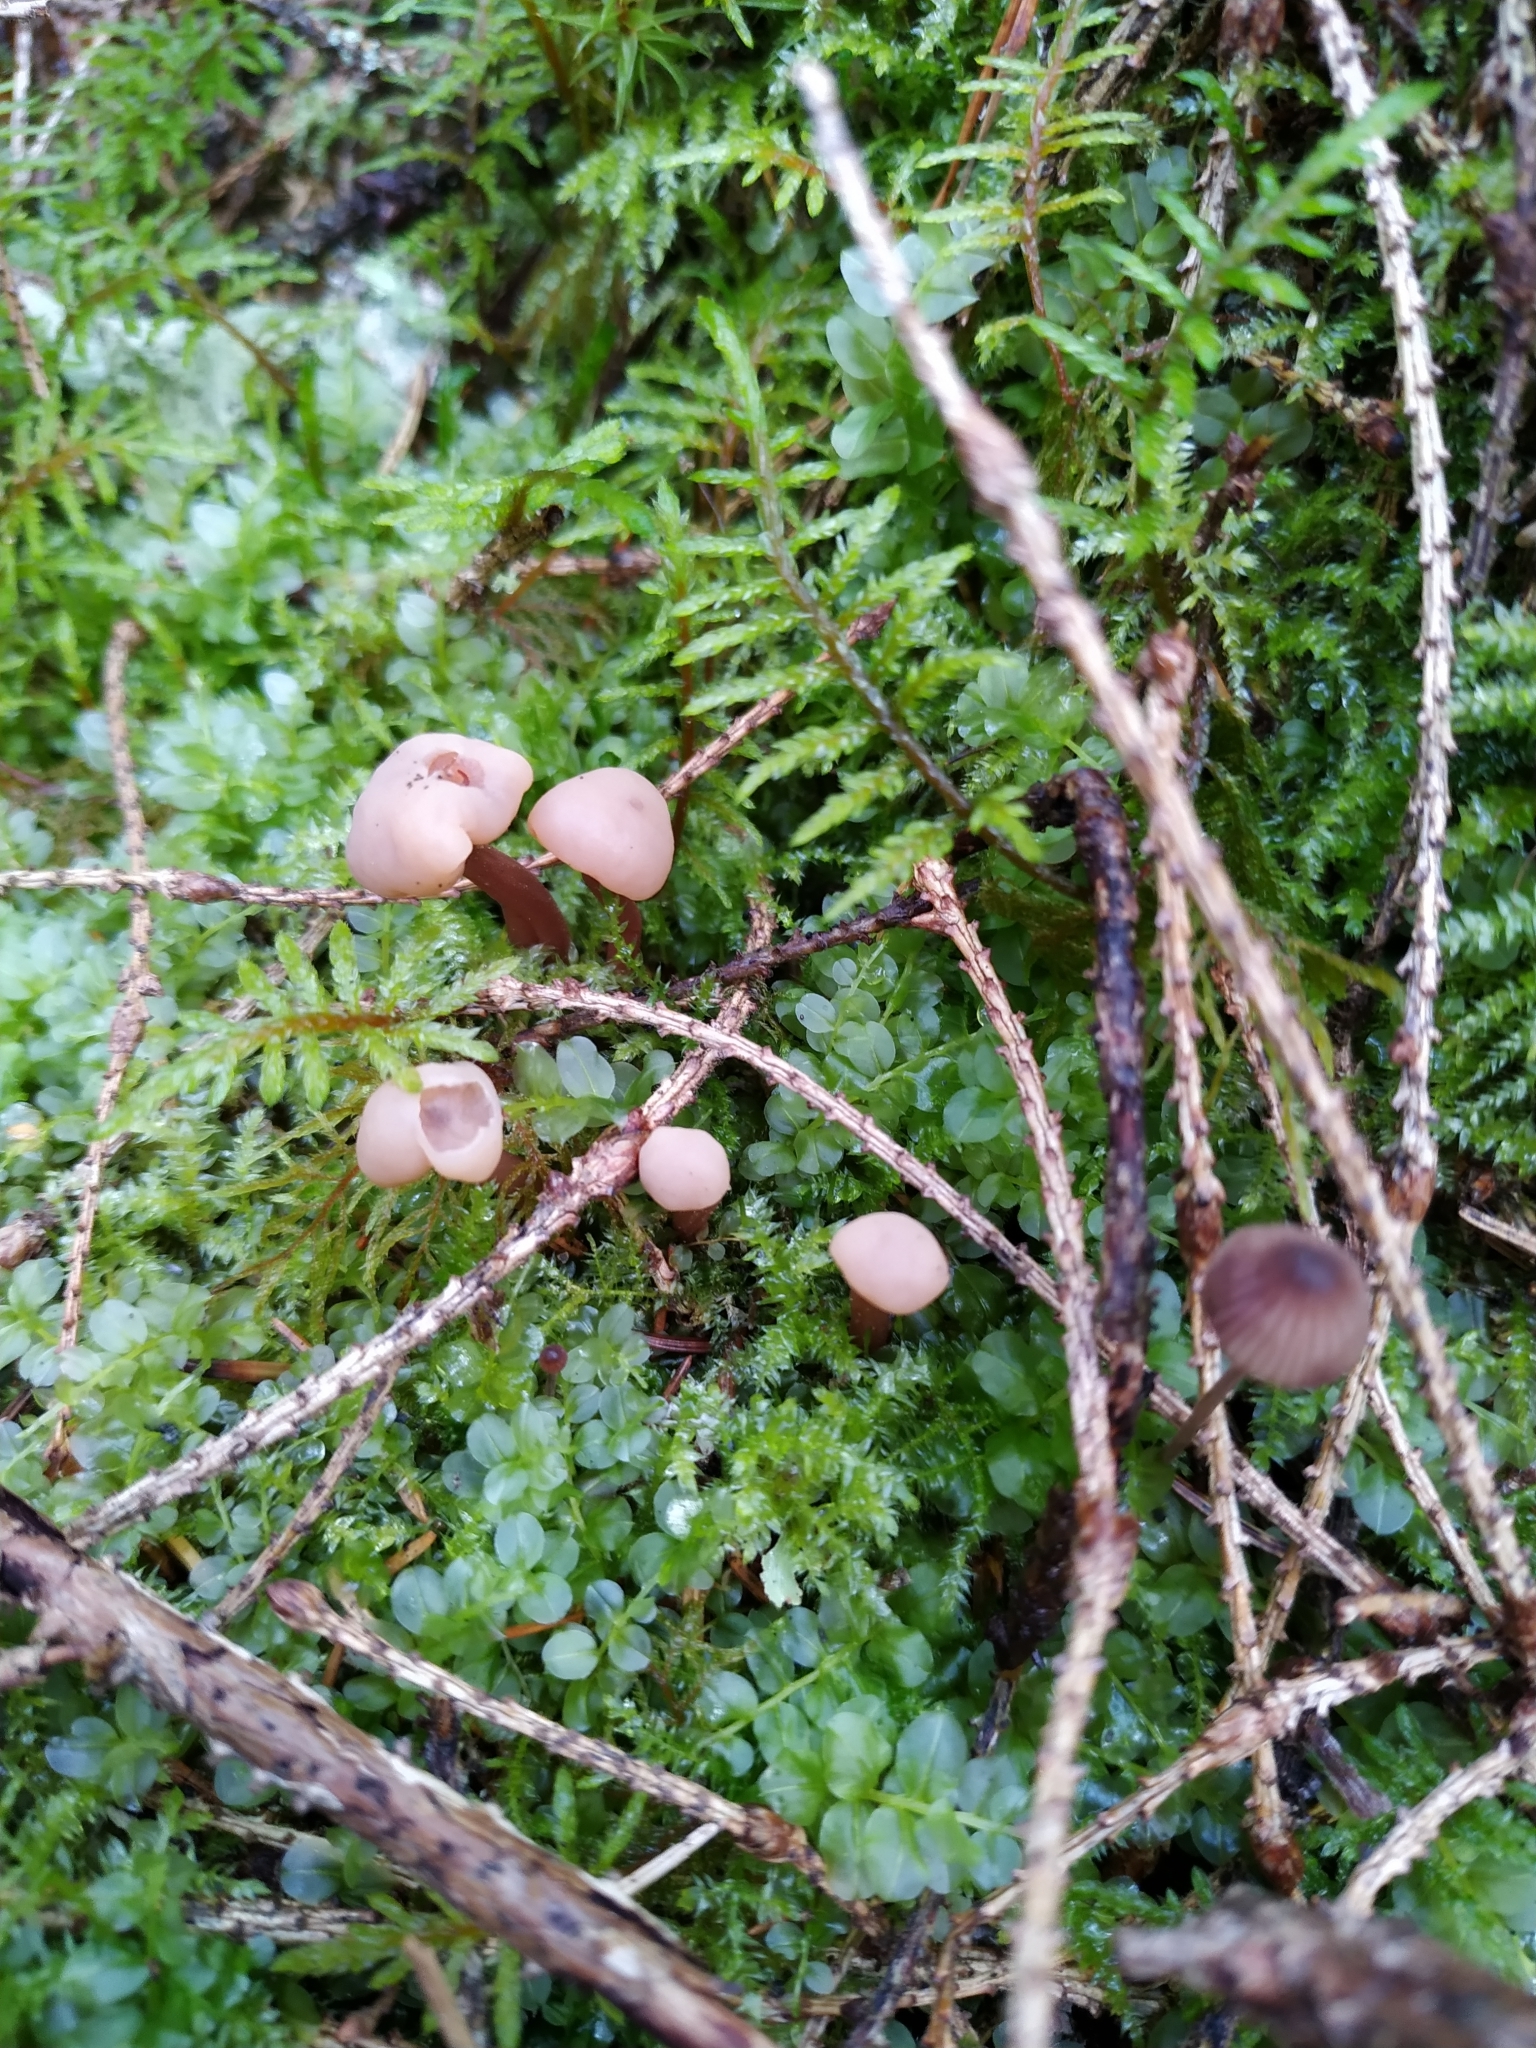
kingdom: Fungi
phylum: Ascomycota
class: Leotiomycetes
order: Rhytismatales
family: Cudoniaceae
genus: Cudonia
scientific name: Cudonia circinans
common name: Redleg jellybaby
